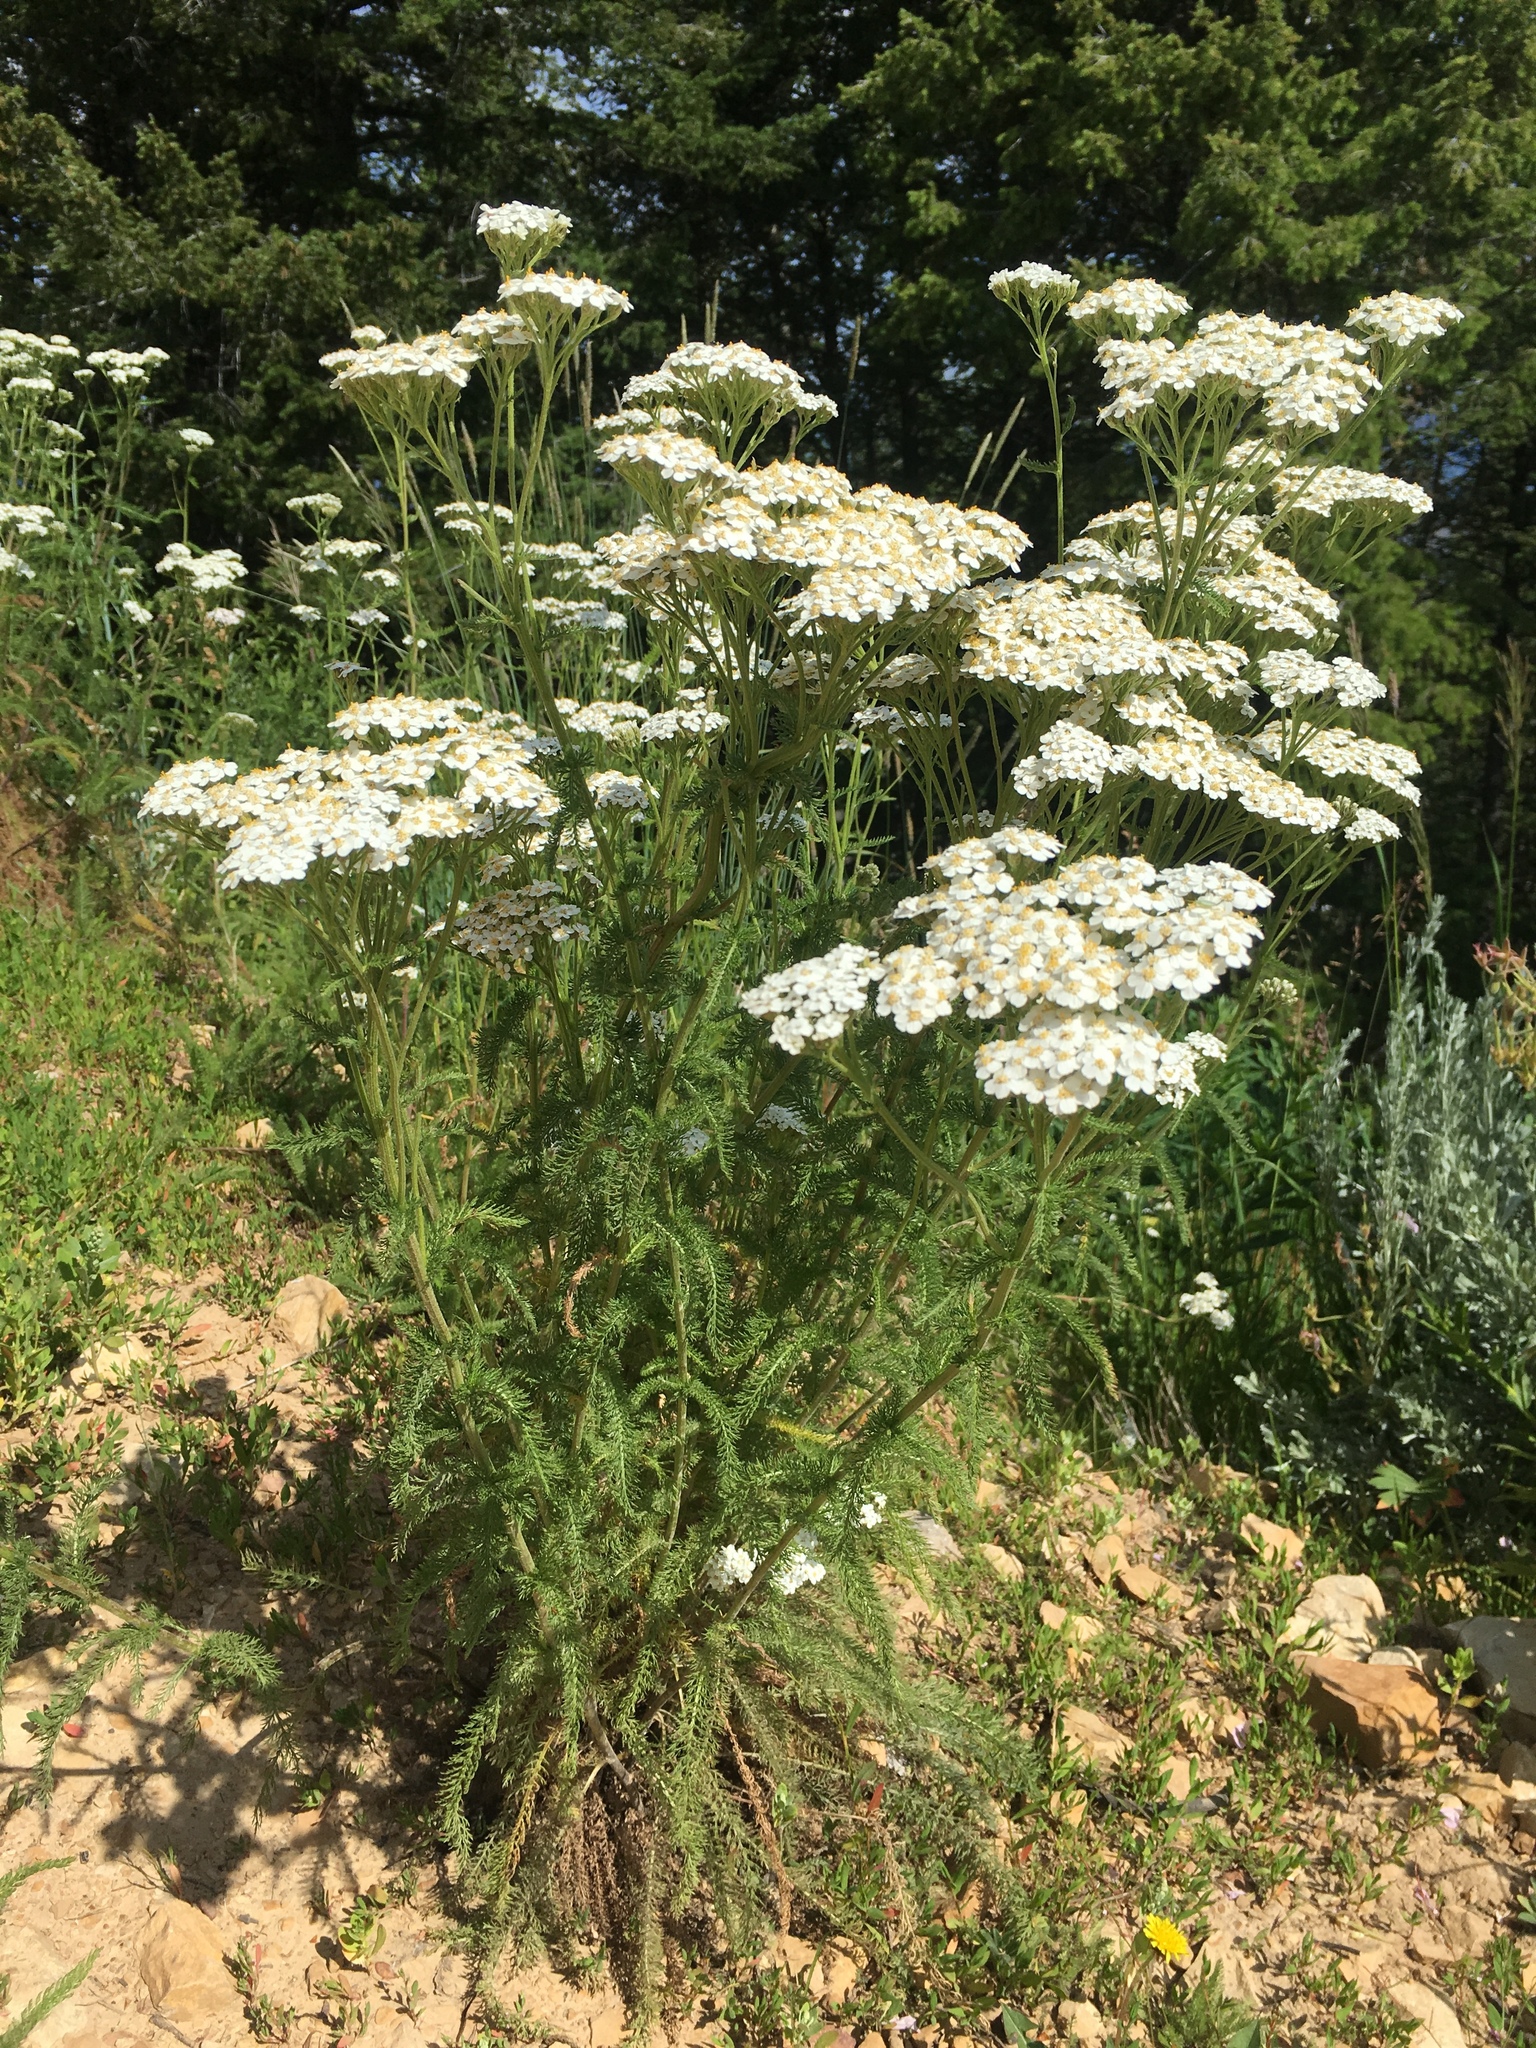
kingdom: Plantae
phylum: Tracheophyta
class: Magnoliopsida
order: Asterales
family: Asteraceae
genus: Achillea
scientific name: Achillea millefolium
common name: Yarrow
